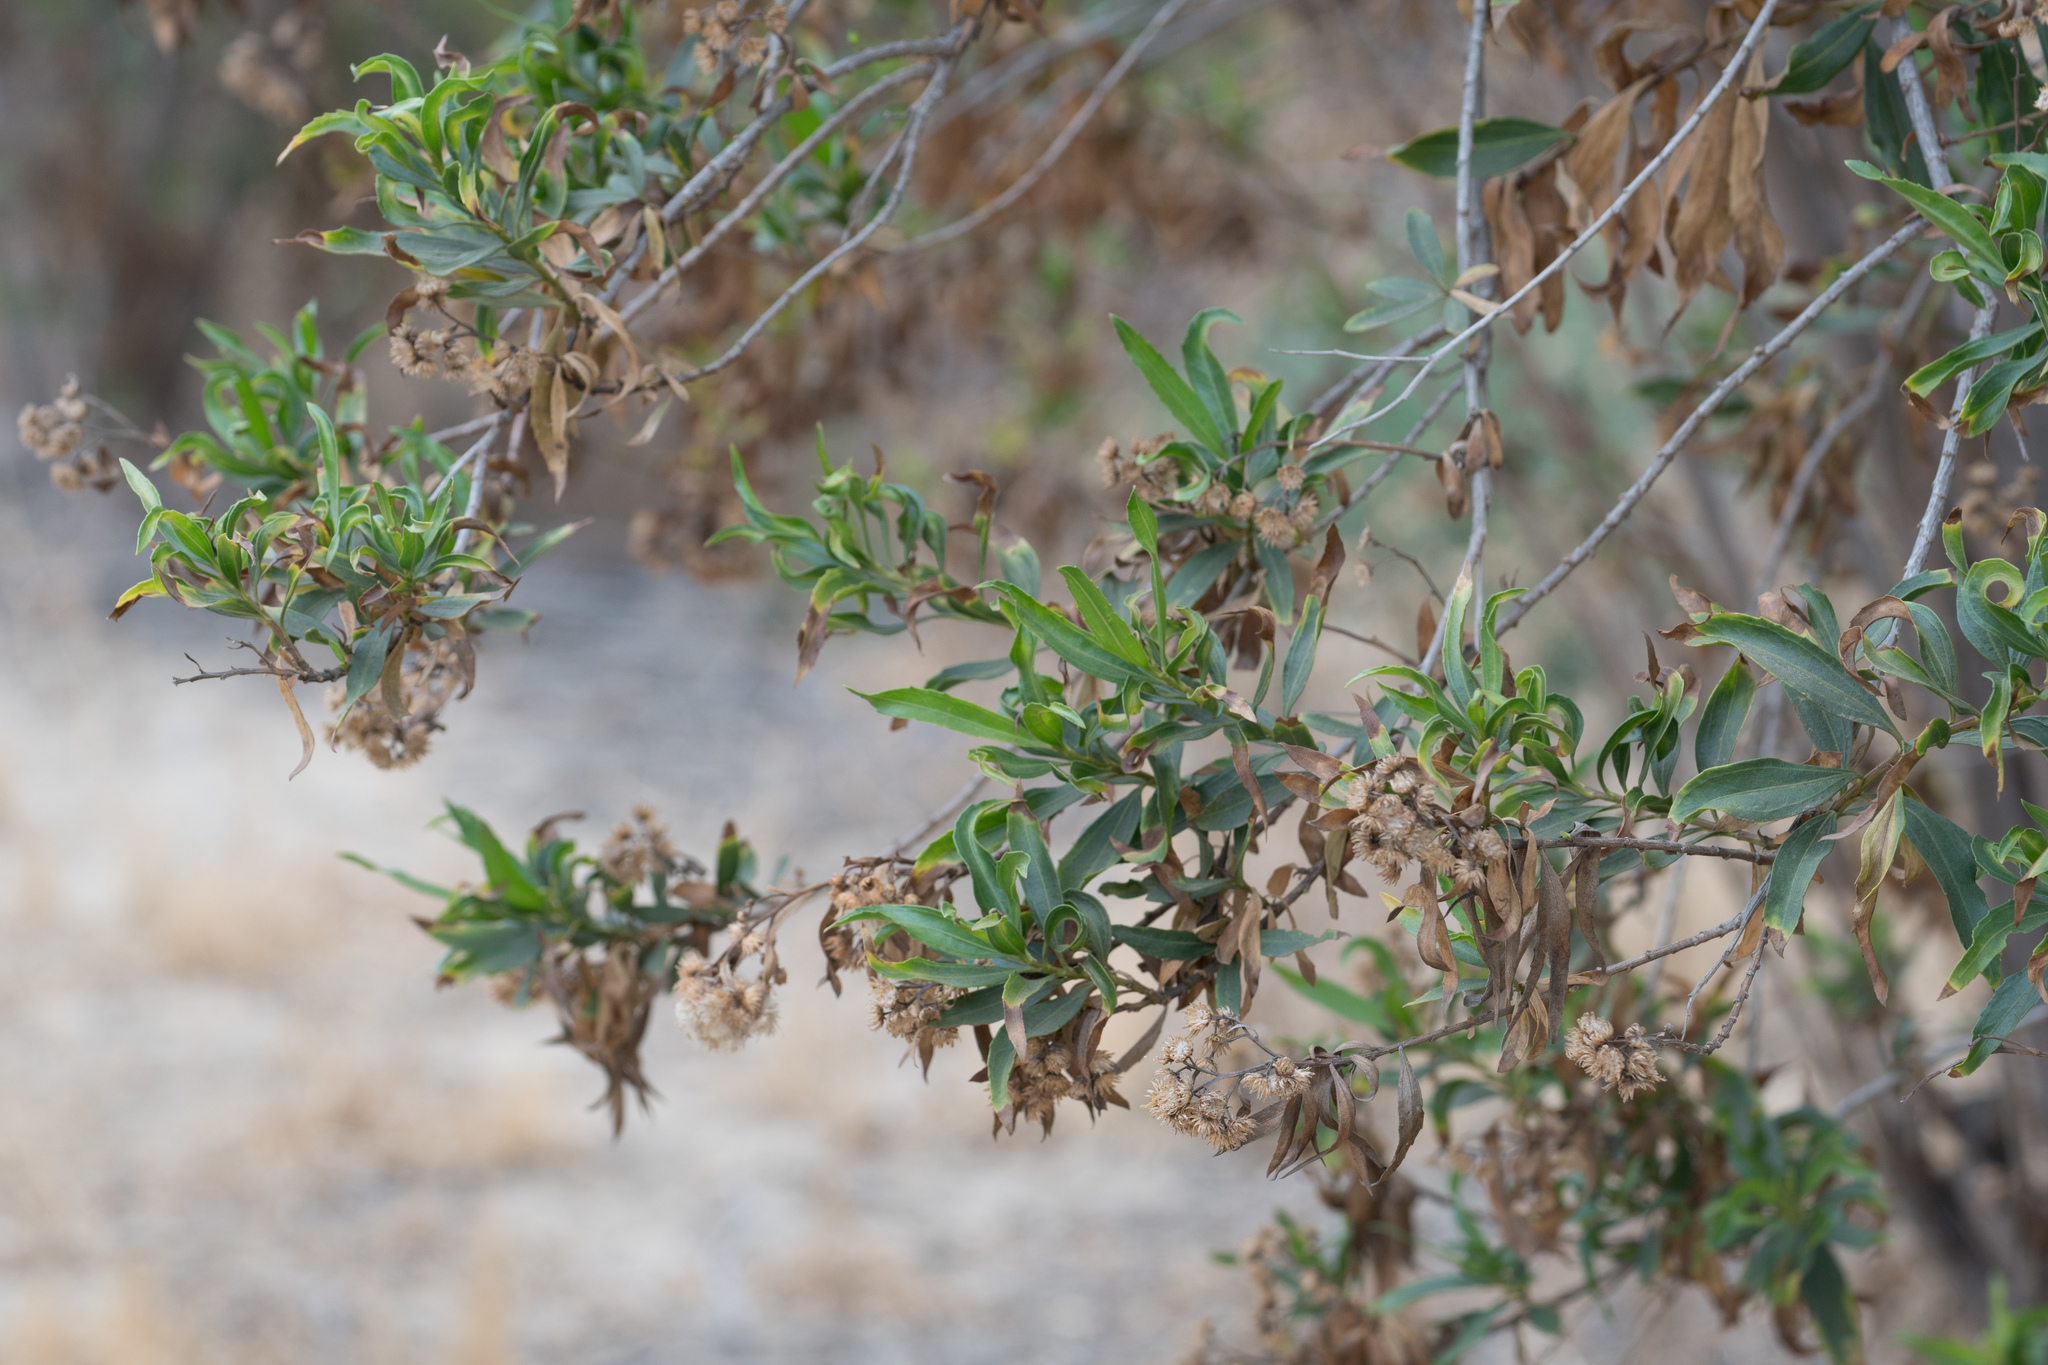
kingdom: Plantae
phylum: Tracheophyta
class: Magnoliopsida
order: Asterales
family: Asteraceae
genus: Baccharis
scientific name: Baccharis salicifolia
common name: Sticky baccharis
